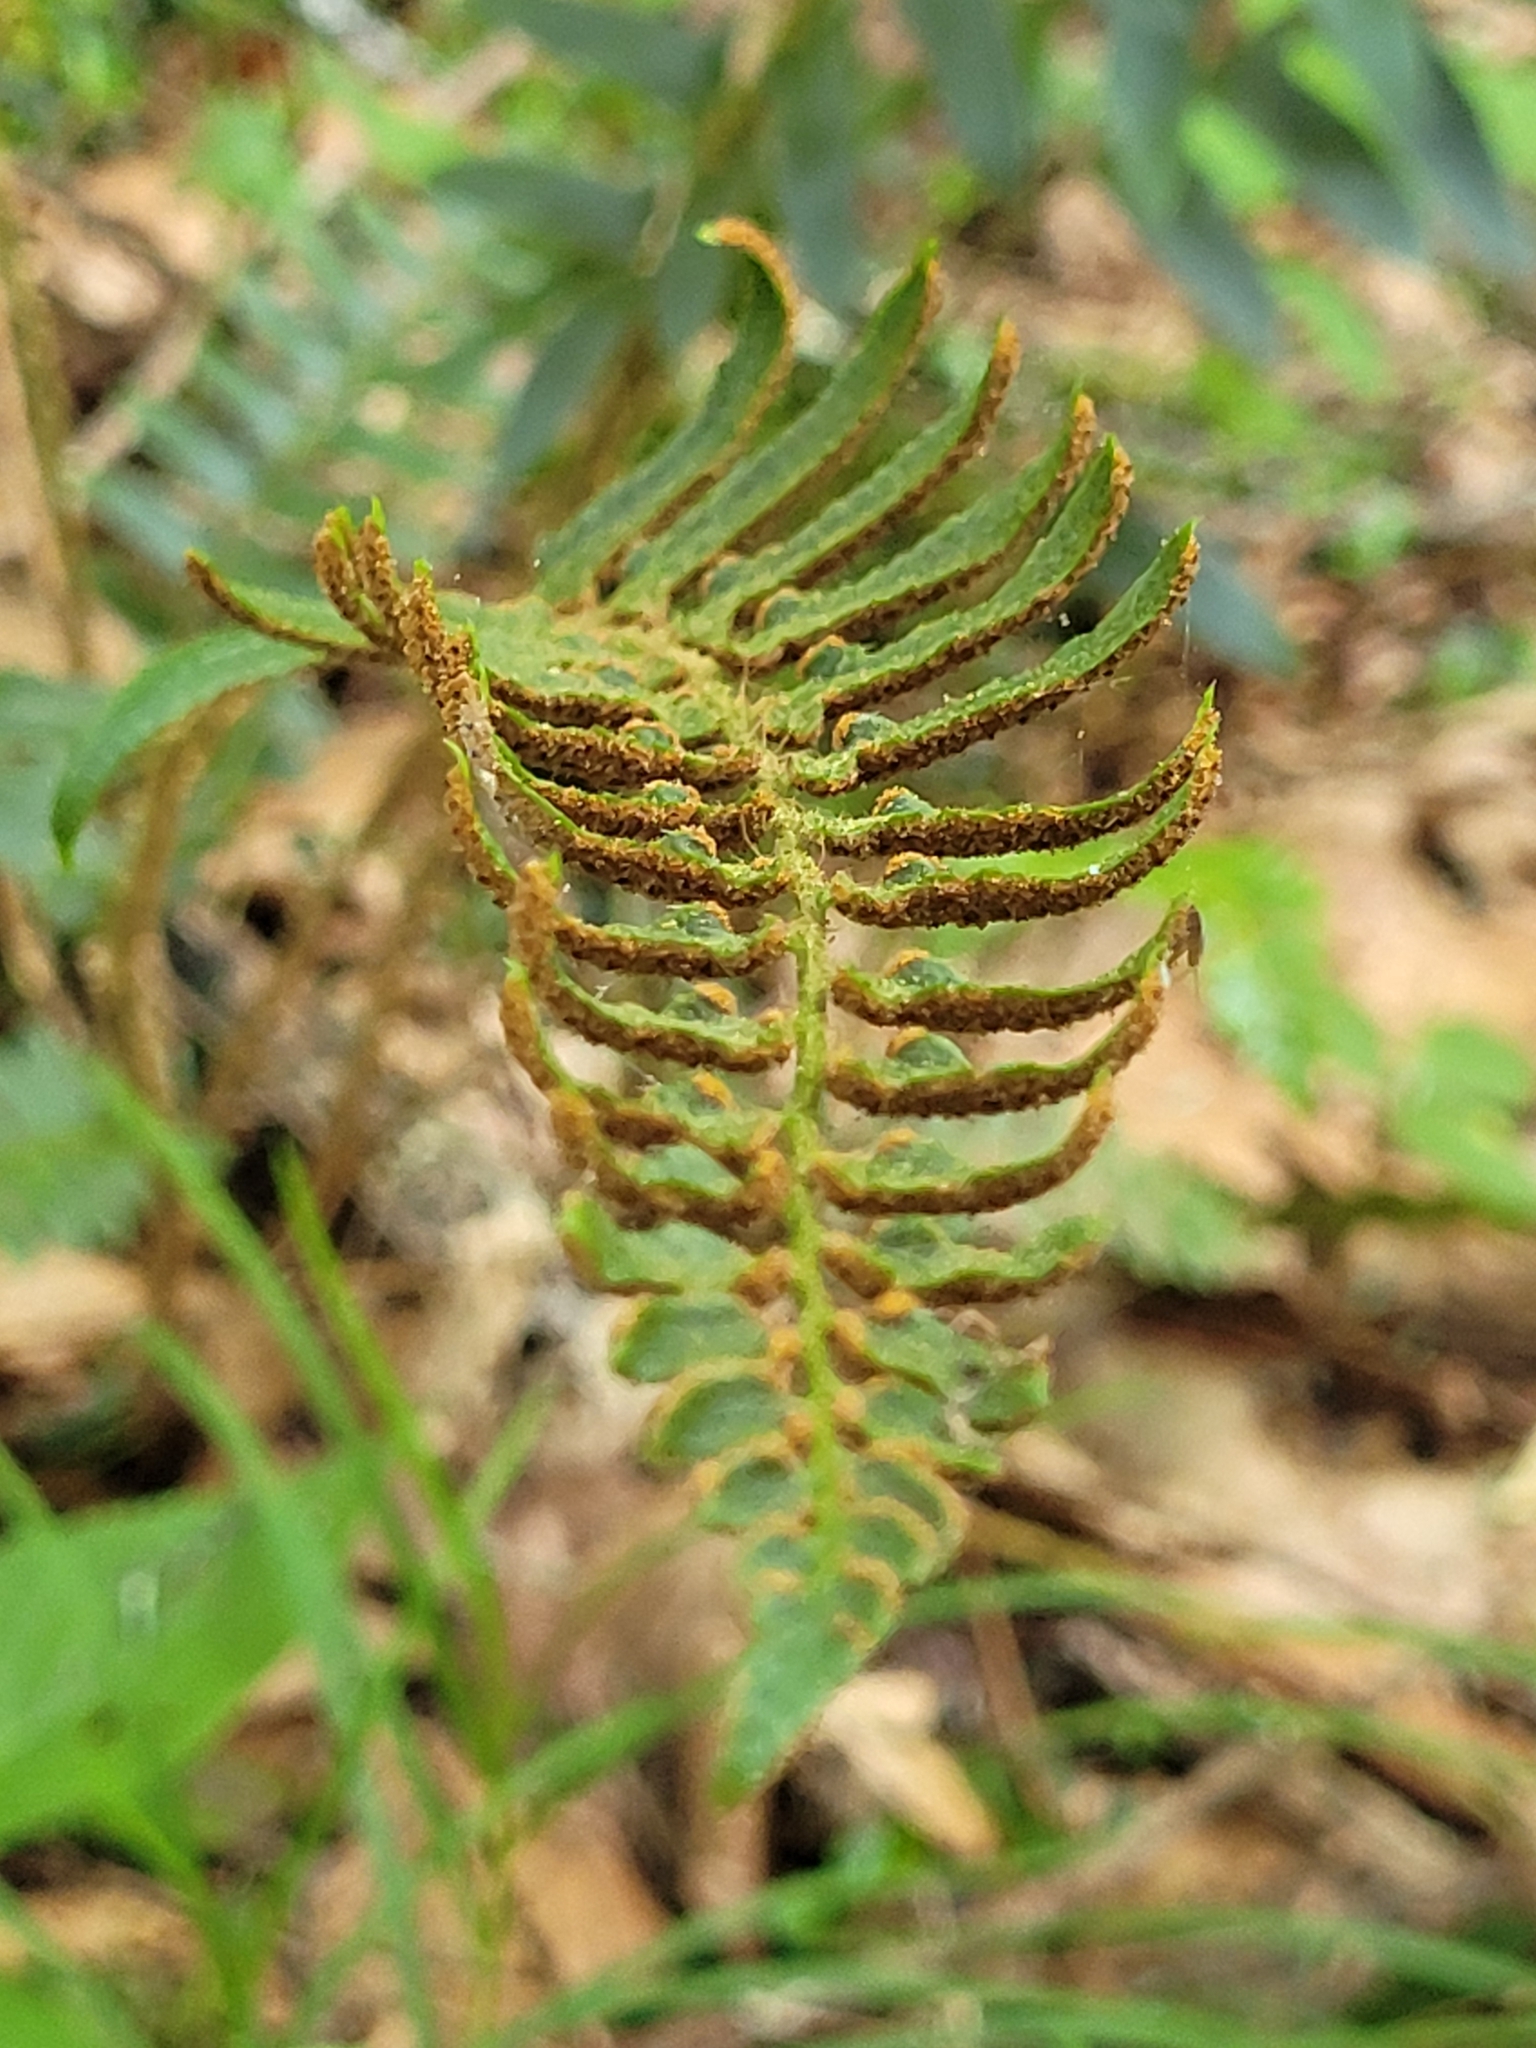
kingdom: Plantae
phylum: Tracheophyta
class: Polypodiopsida
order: Polypodiales
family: Dryopteridaceae
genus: Polystichum
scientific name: Polystichum acrostichoides
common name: Christmas fern
